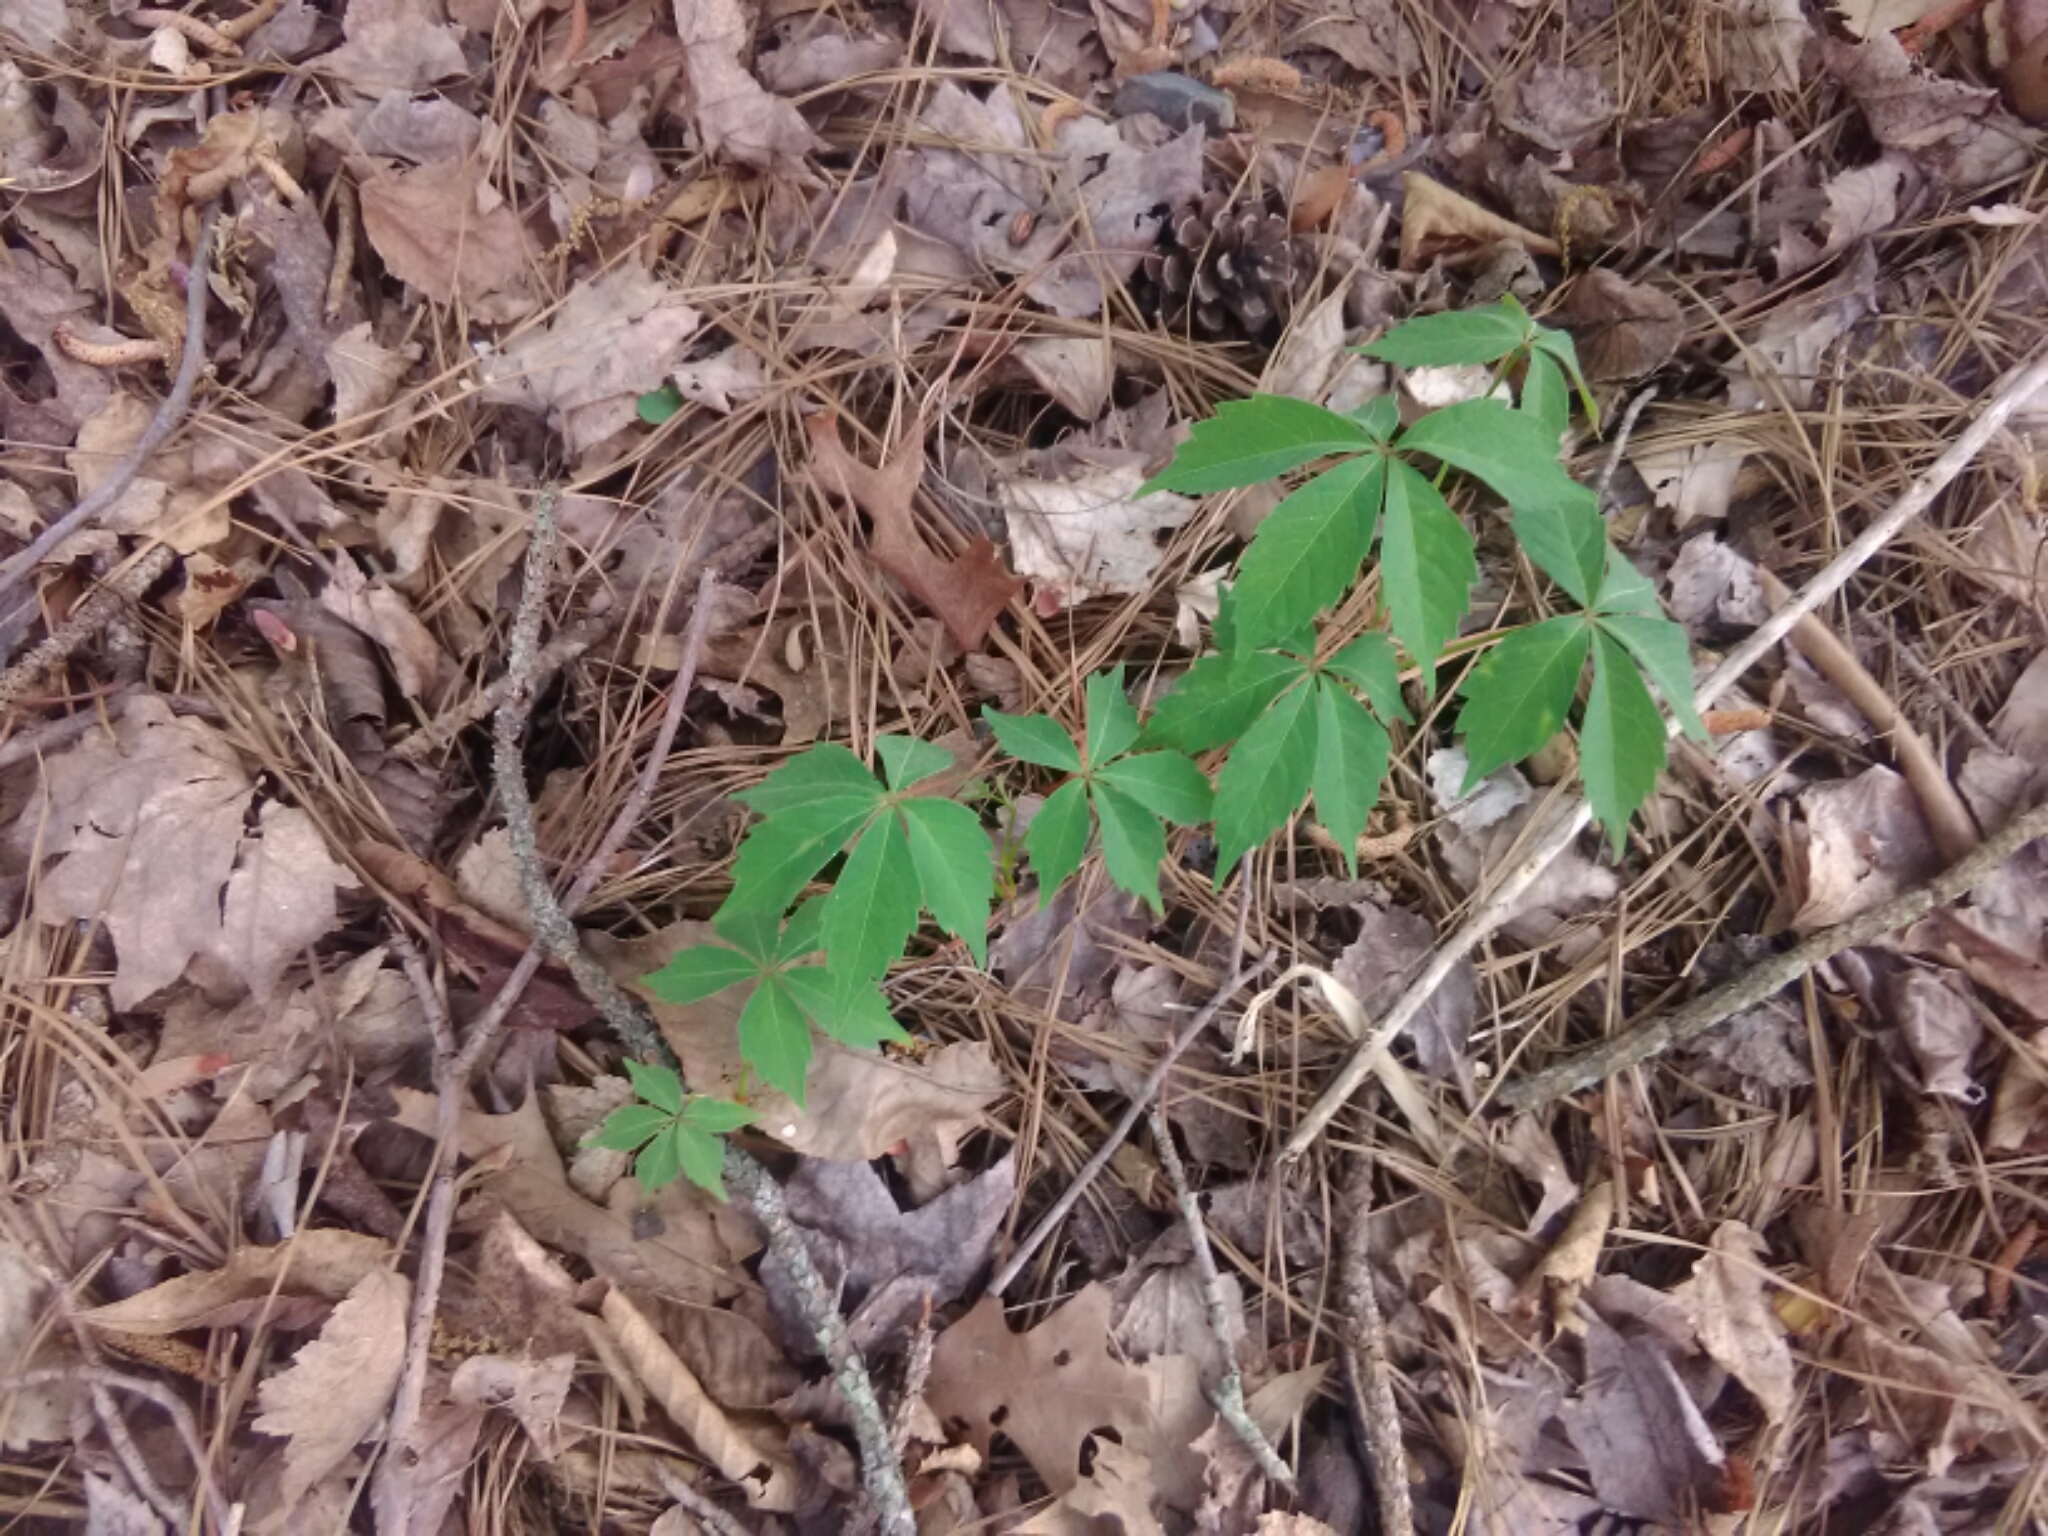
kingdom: Plantae
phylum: Tracheophyta
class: Magnoliopsida
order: Vitales
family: Vitaceae
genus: Parthenocissus
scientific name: Parthenocissus quinquefolia
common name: Virginia-creeper
